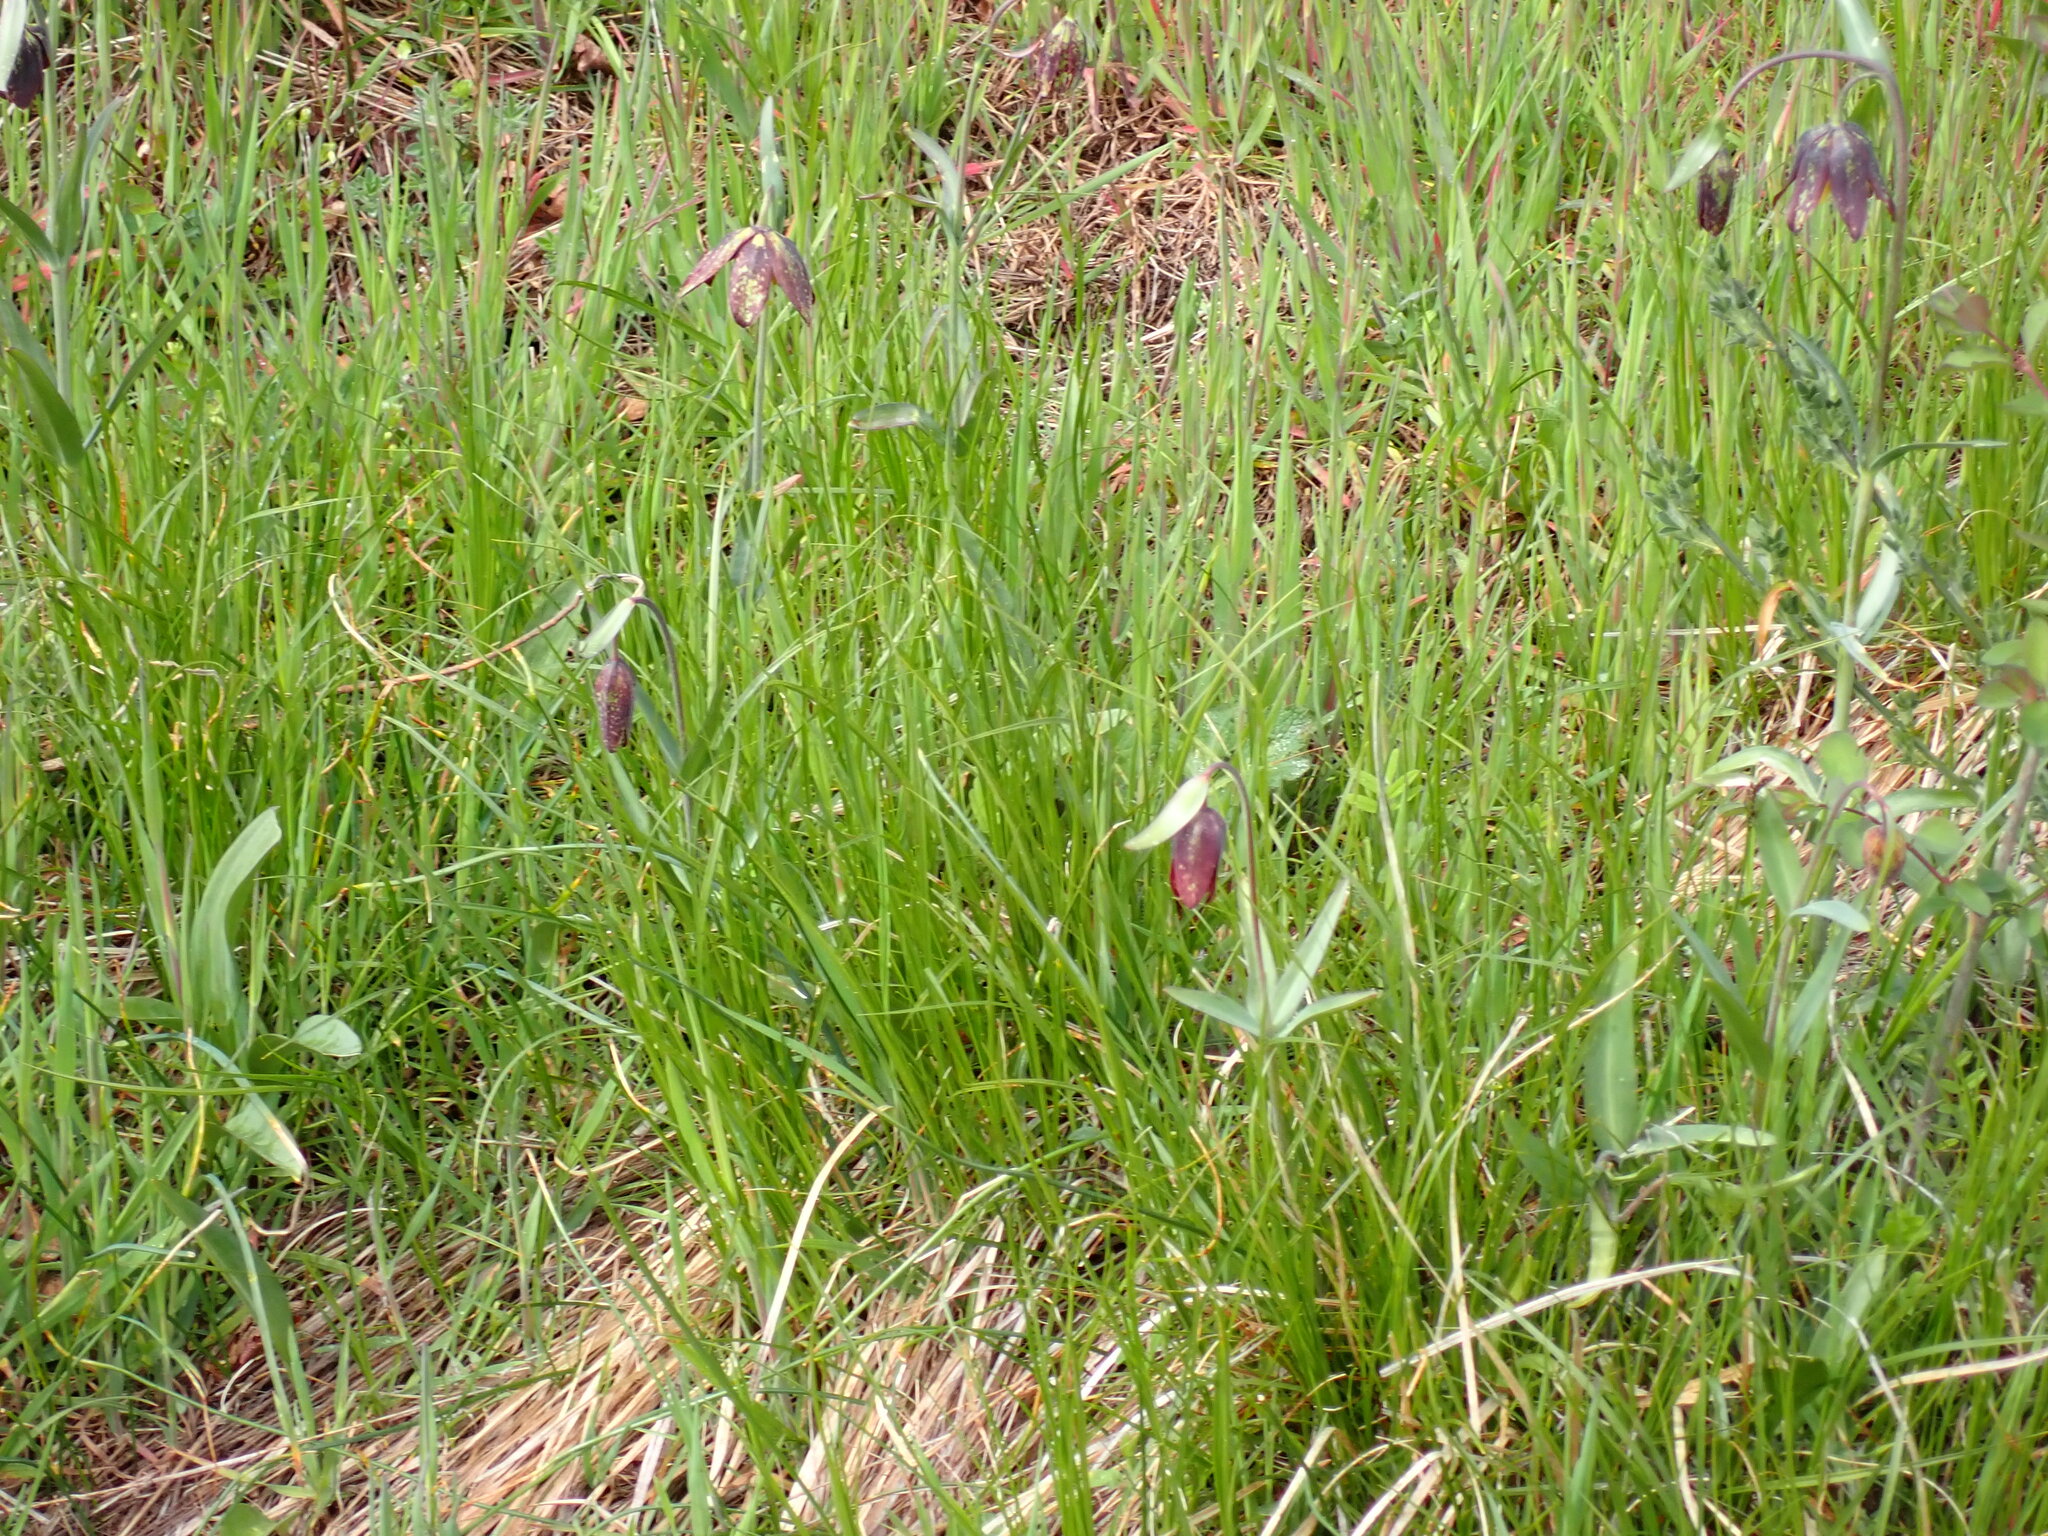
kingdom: Plantae
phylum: Tracheophyta
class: Liliopsida
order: Liliales
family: Liliaceae
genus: Fritillaria
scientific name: Fritillaria affinis
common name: Ojai fritillary
